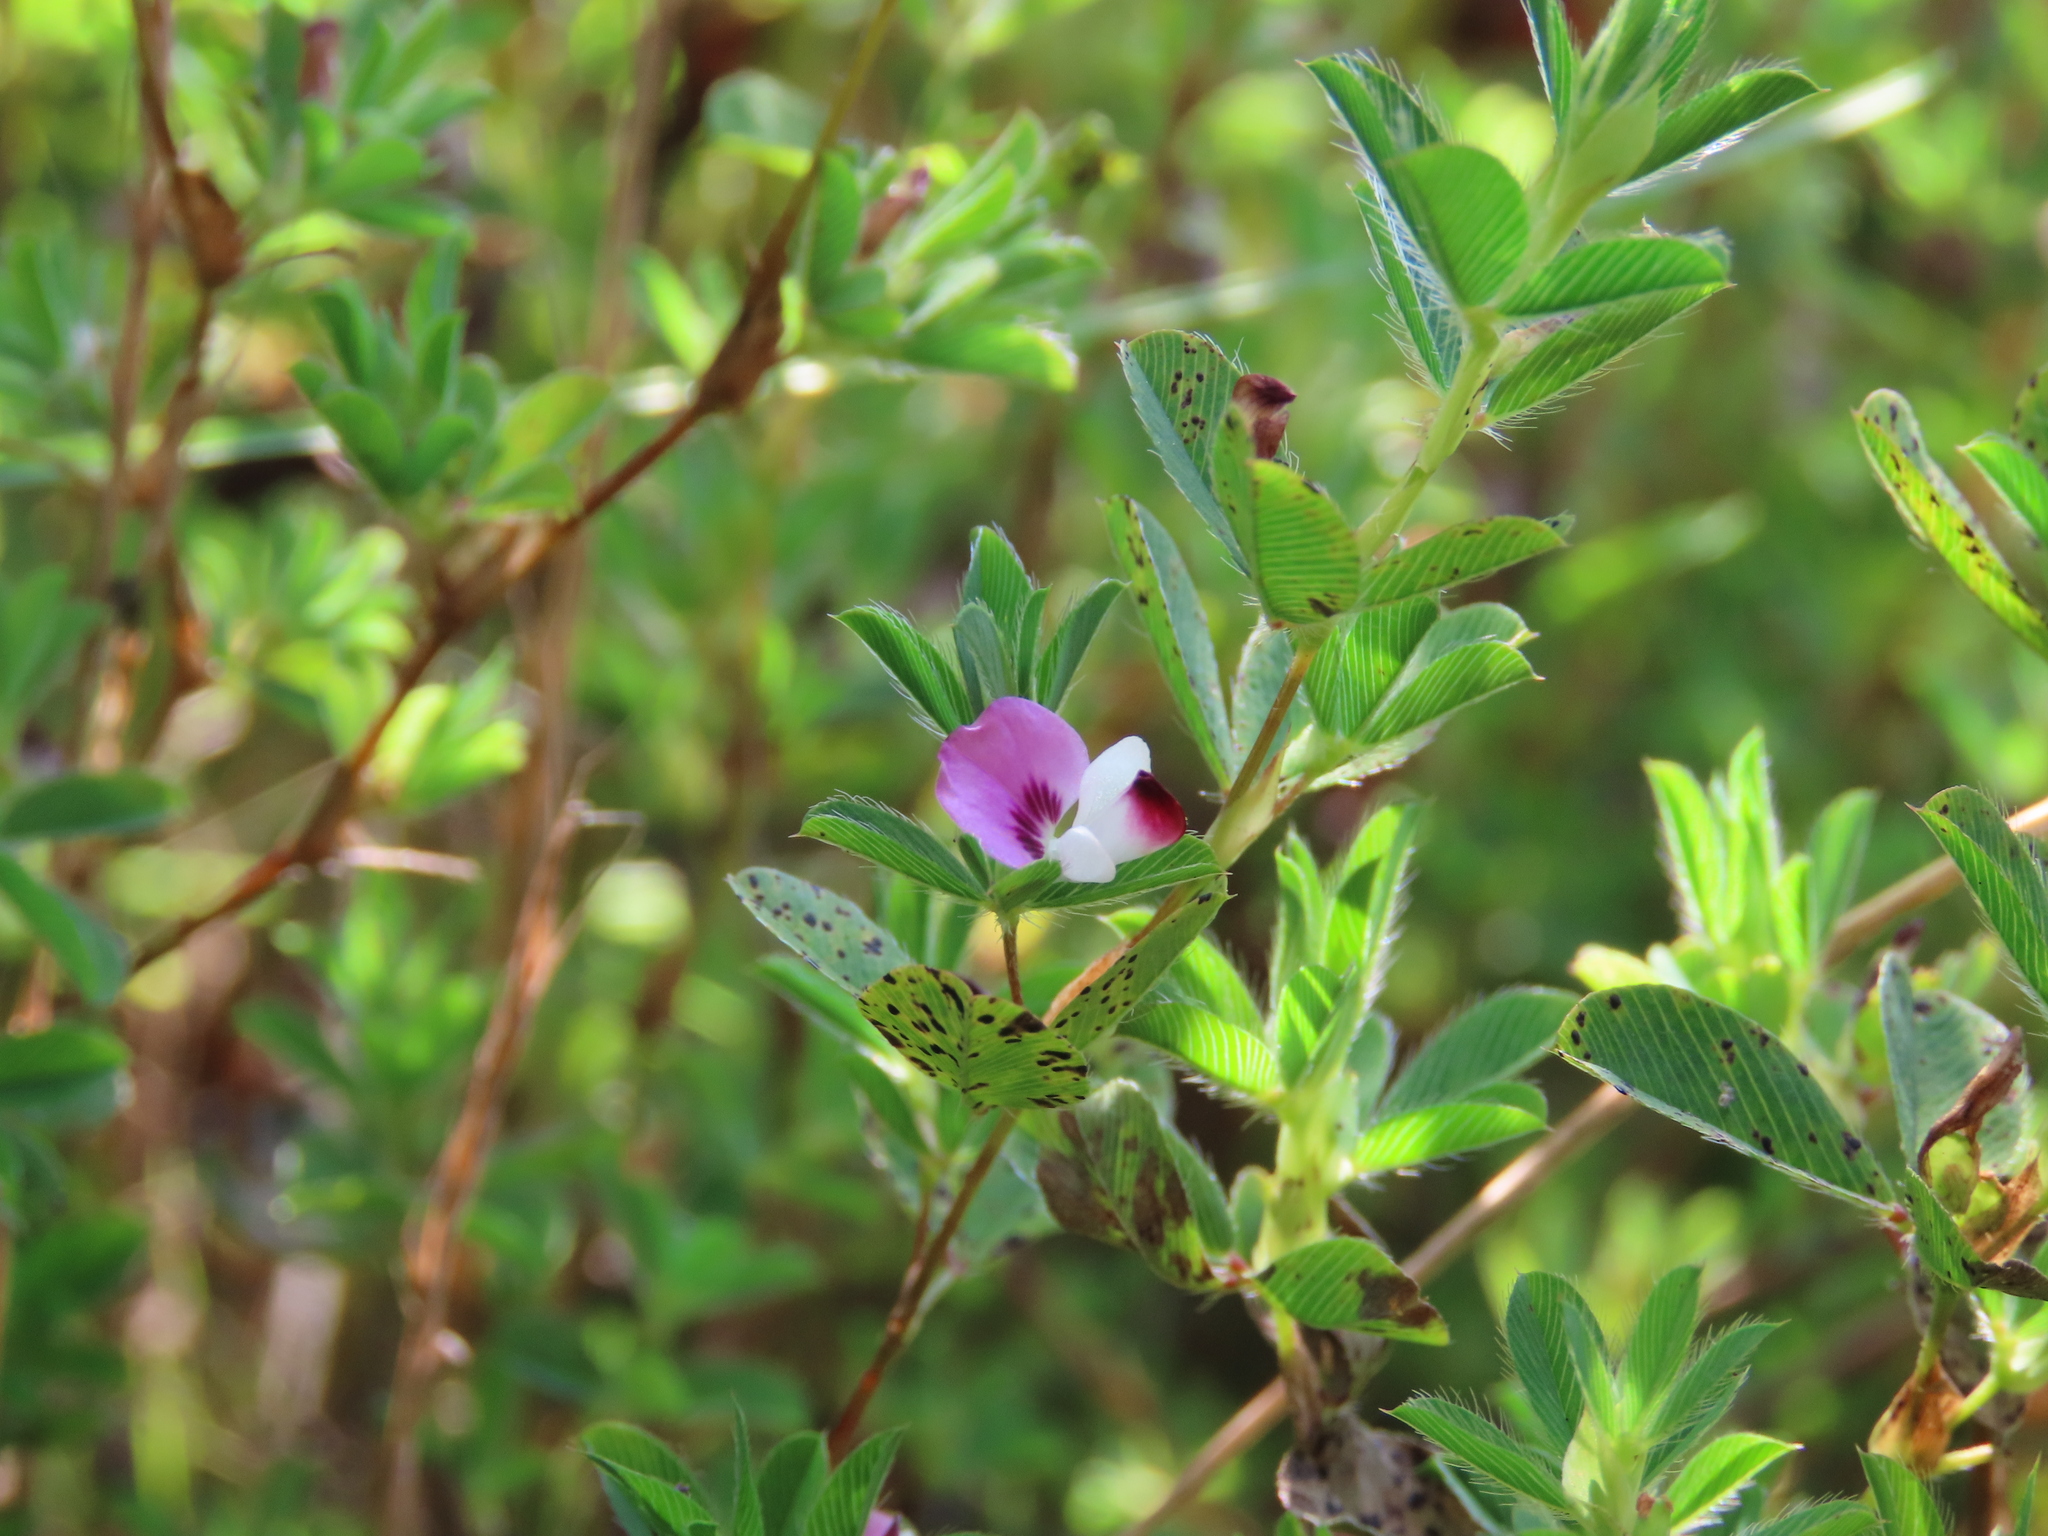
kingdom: Plantae
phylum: Tracheophyta
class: Magnoliopsida
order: Fabales
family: Fabaceae
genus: Kummerowia
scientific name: Kummerowia stipulacea
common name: Korean clover
